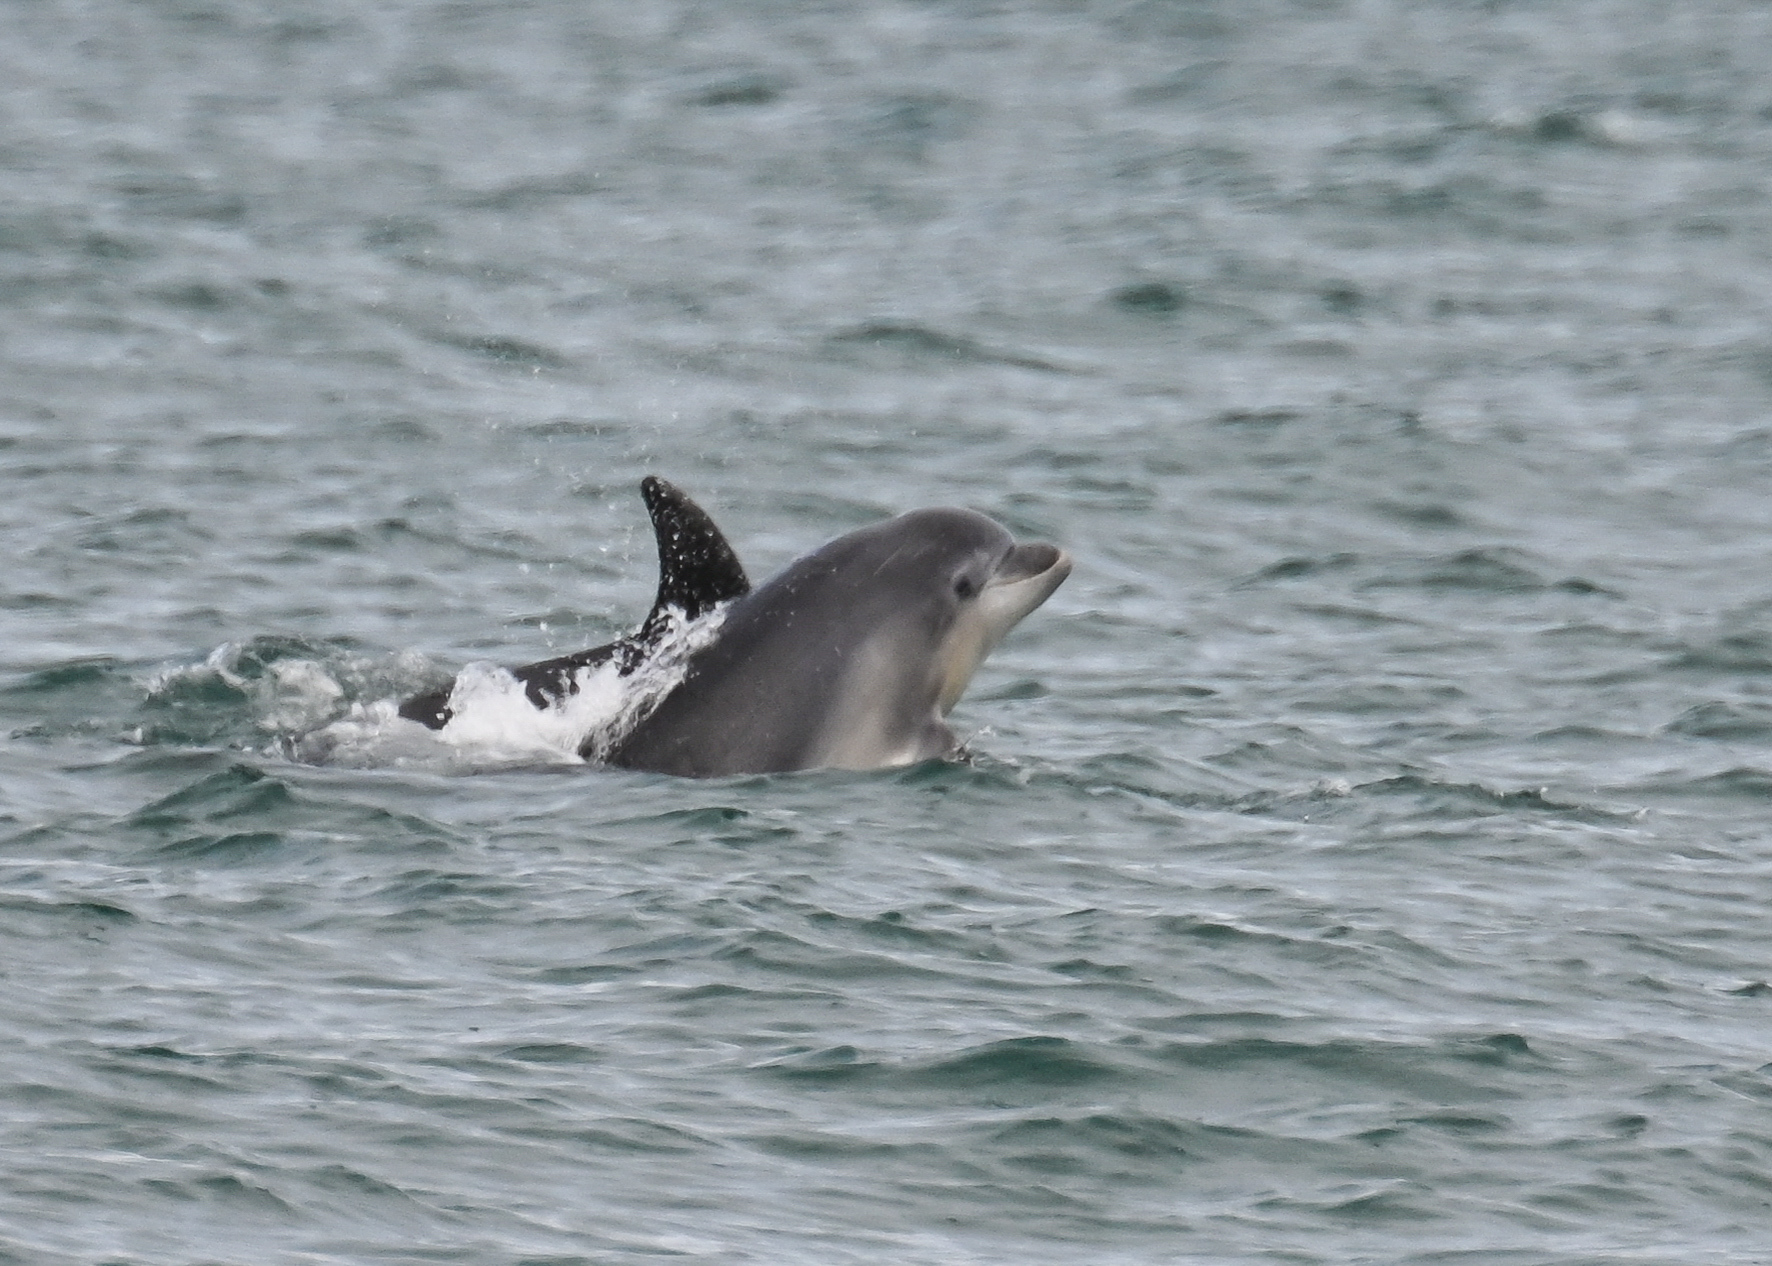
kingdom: Animalia
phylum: Chordata
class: Mammalia
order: Cetacea
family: Delphinidae
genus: Tursiops
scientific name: Tursiops truncatus
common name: Bottlenose dolphin
